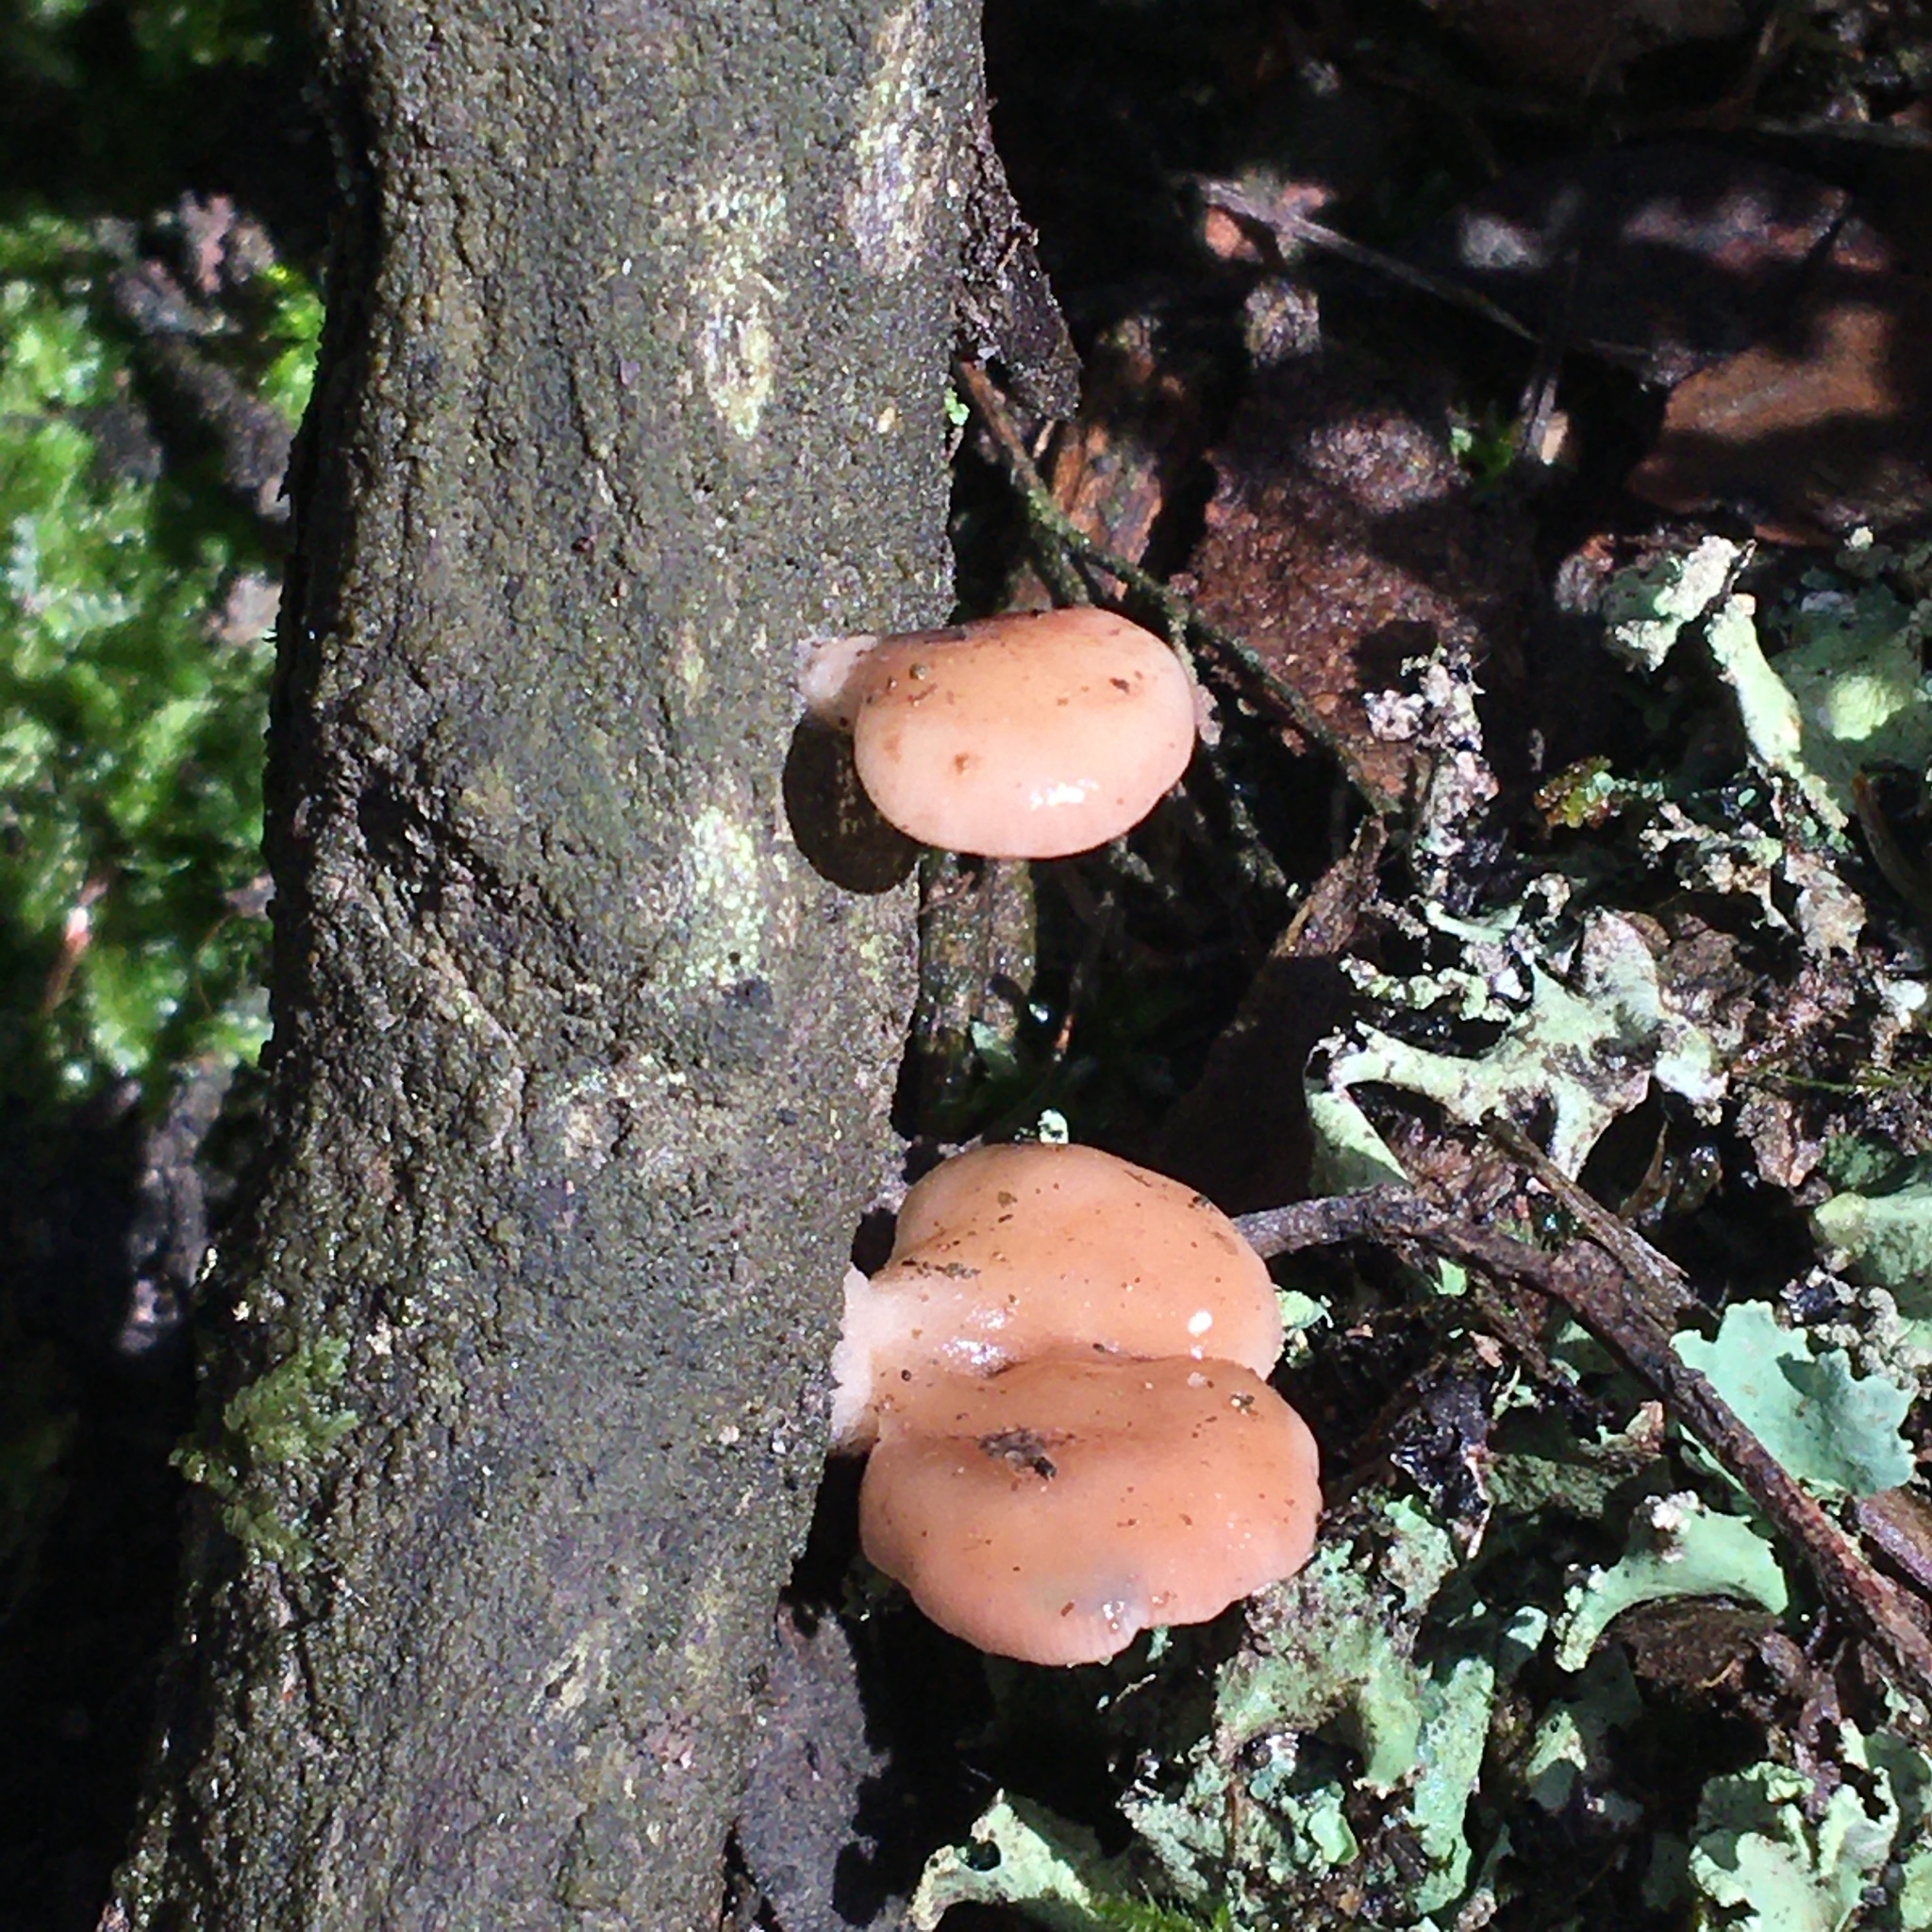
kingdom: Fungi
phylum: Basidiomycota
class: Agaricomycetes
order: Agaricales
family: Mycenaceae
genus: Panellus
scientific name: Panellus longinquus
